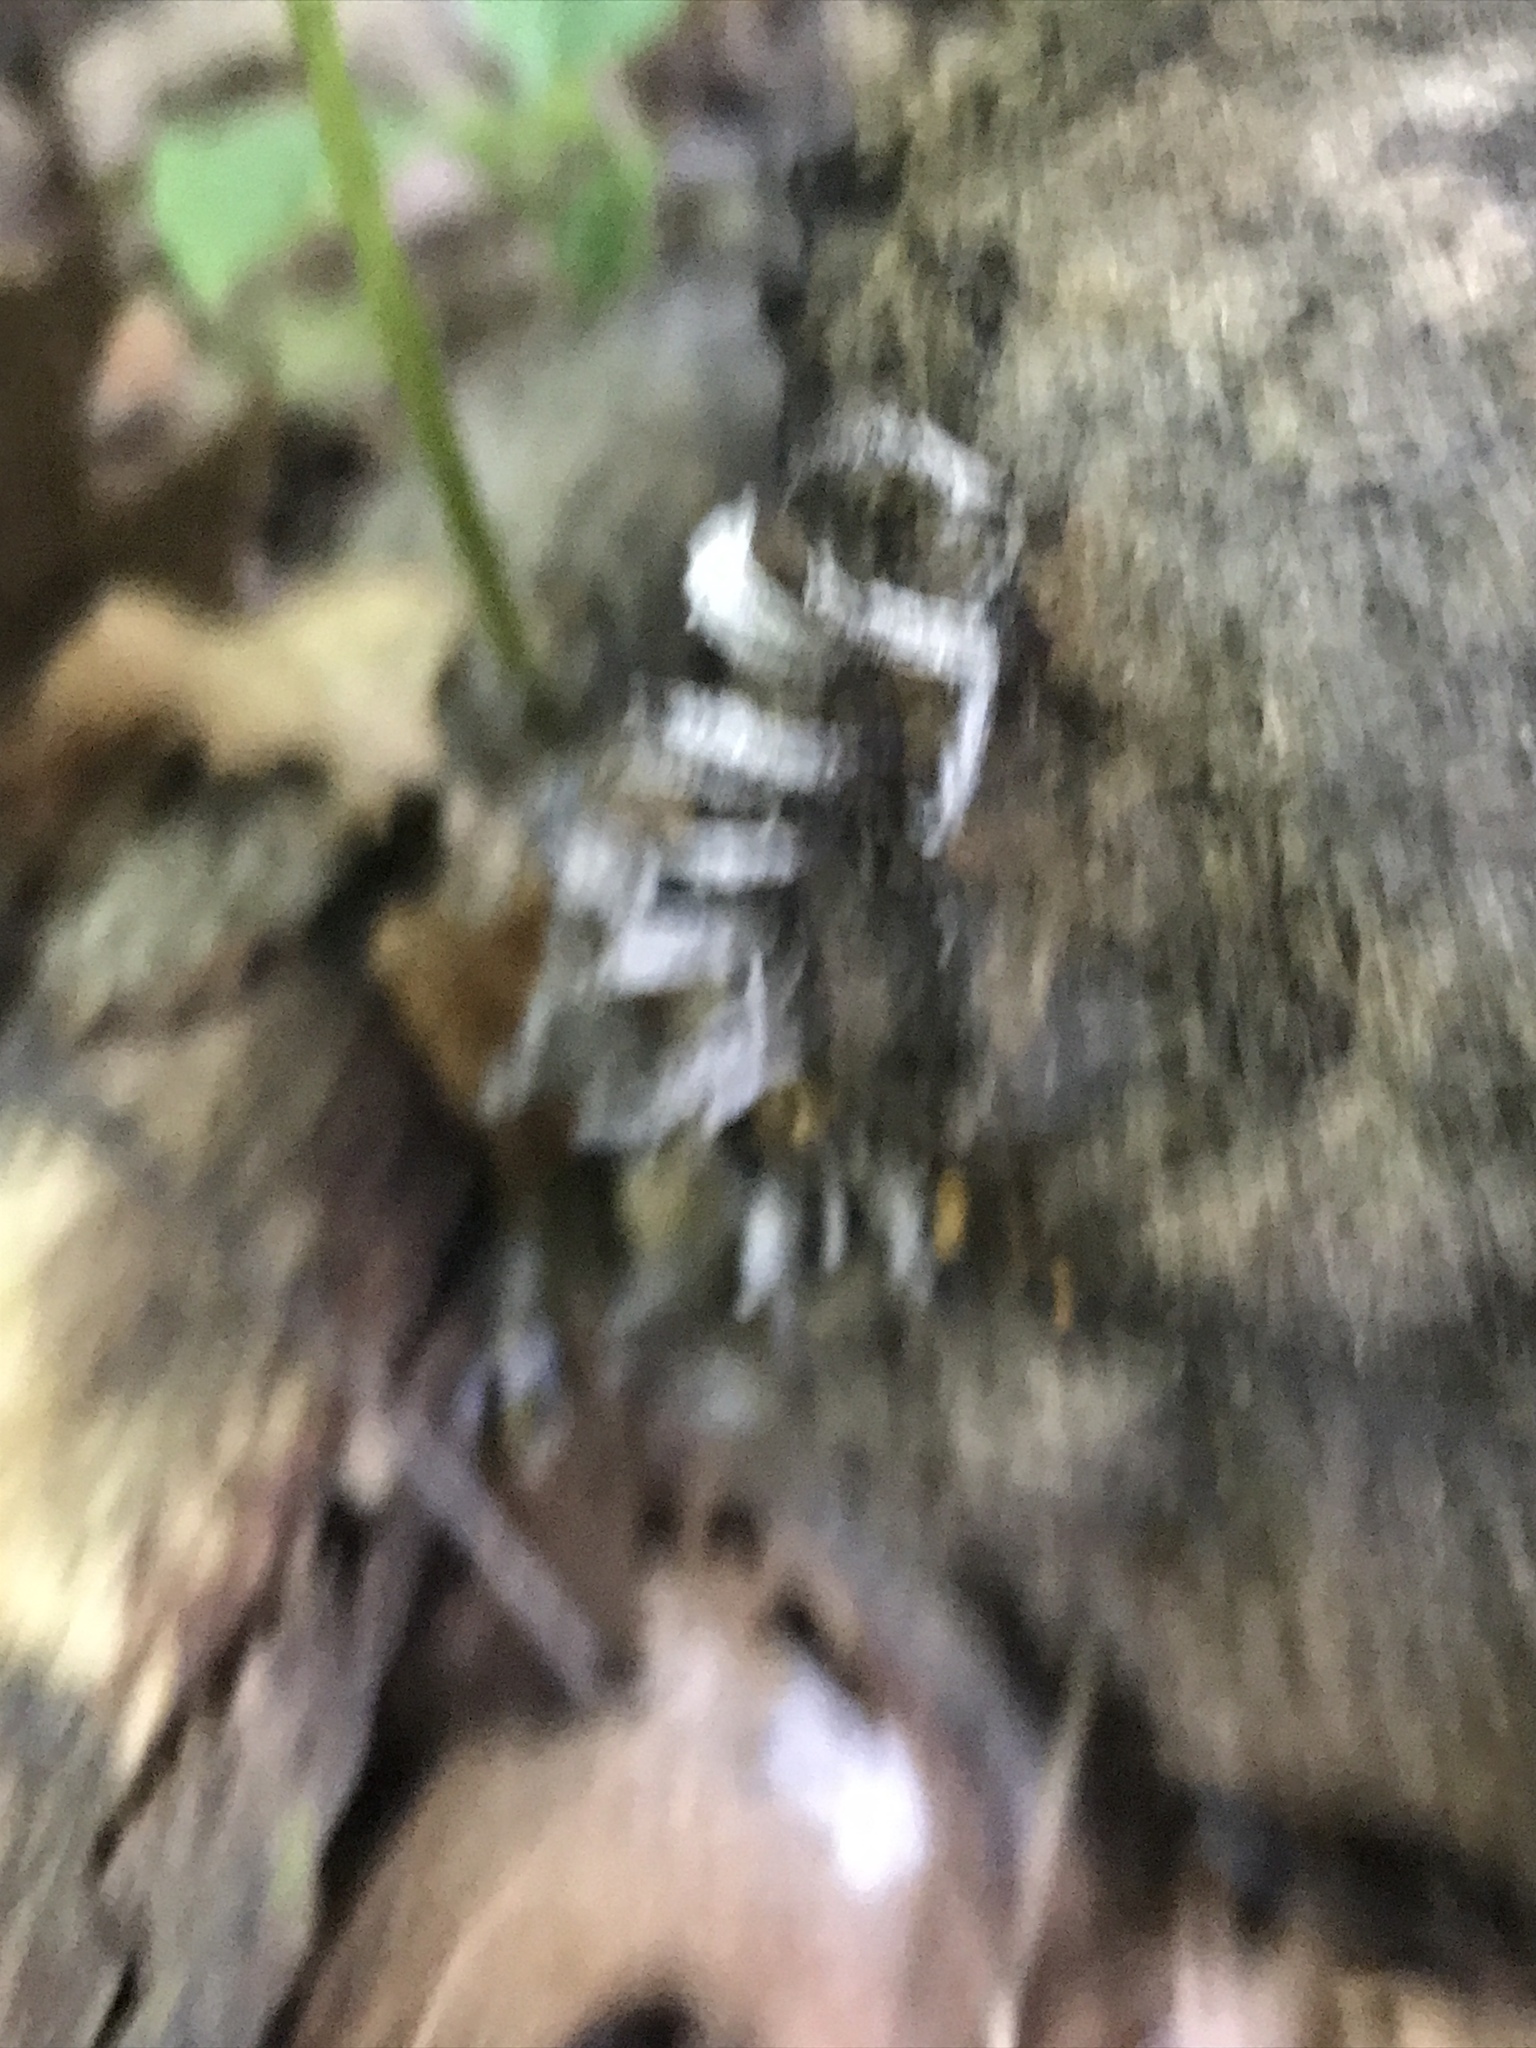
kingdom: Fungi
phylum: Ascomycota
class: Sordariomycetes
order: Hypocreales
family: Bionectriaceae
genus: Nectriopsis
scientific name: Nectriopsis rexiana
